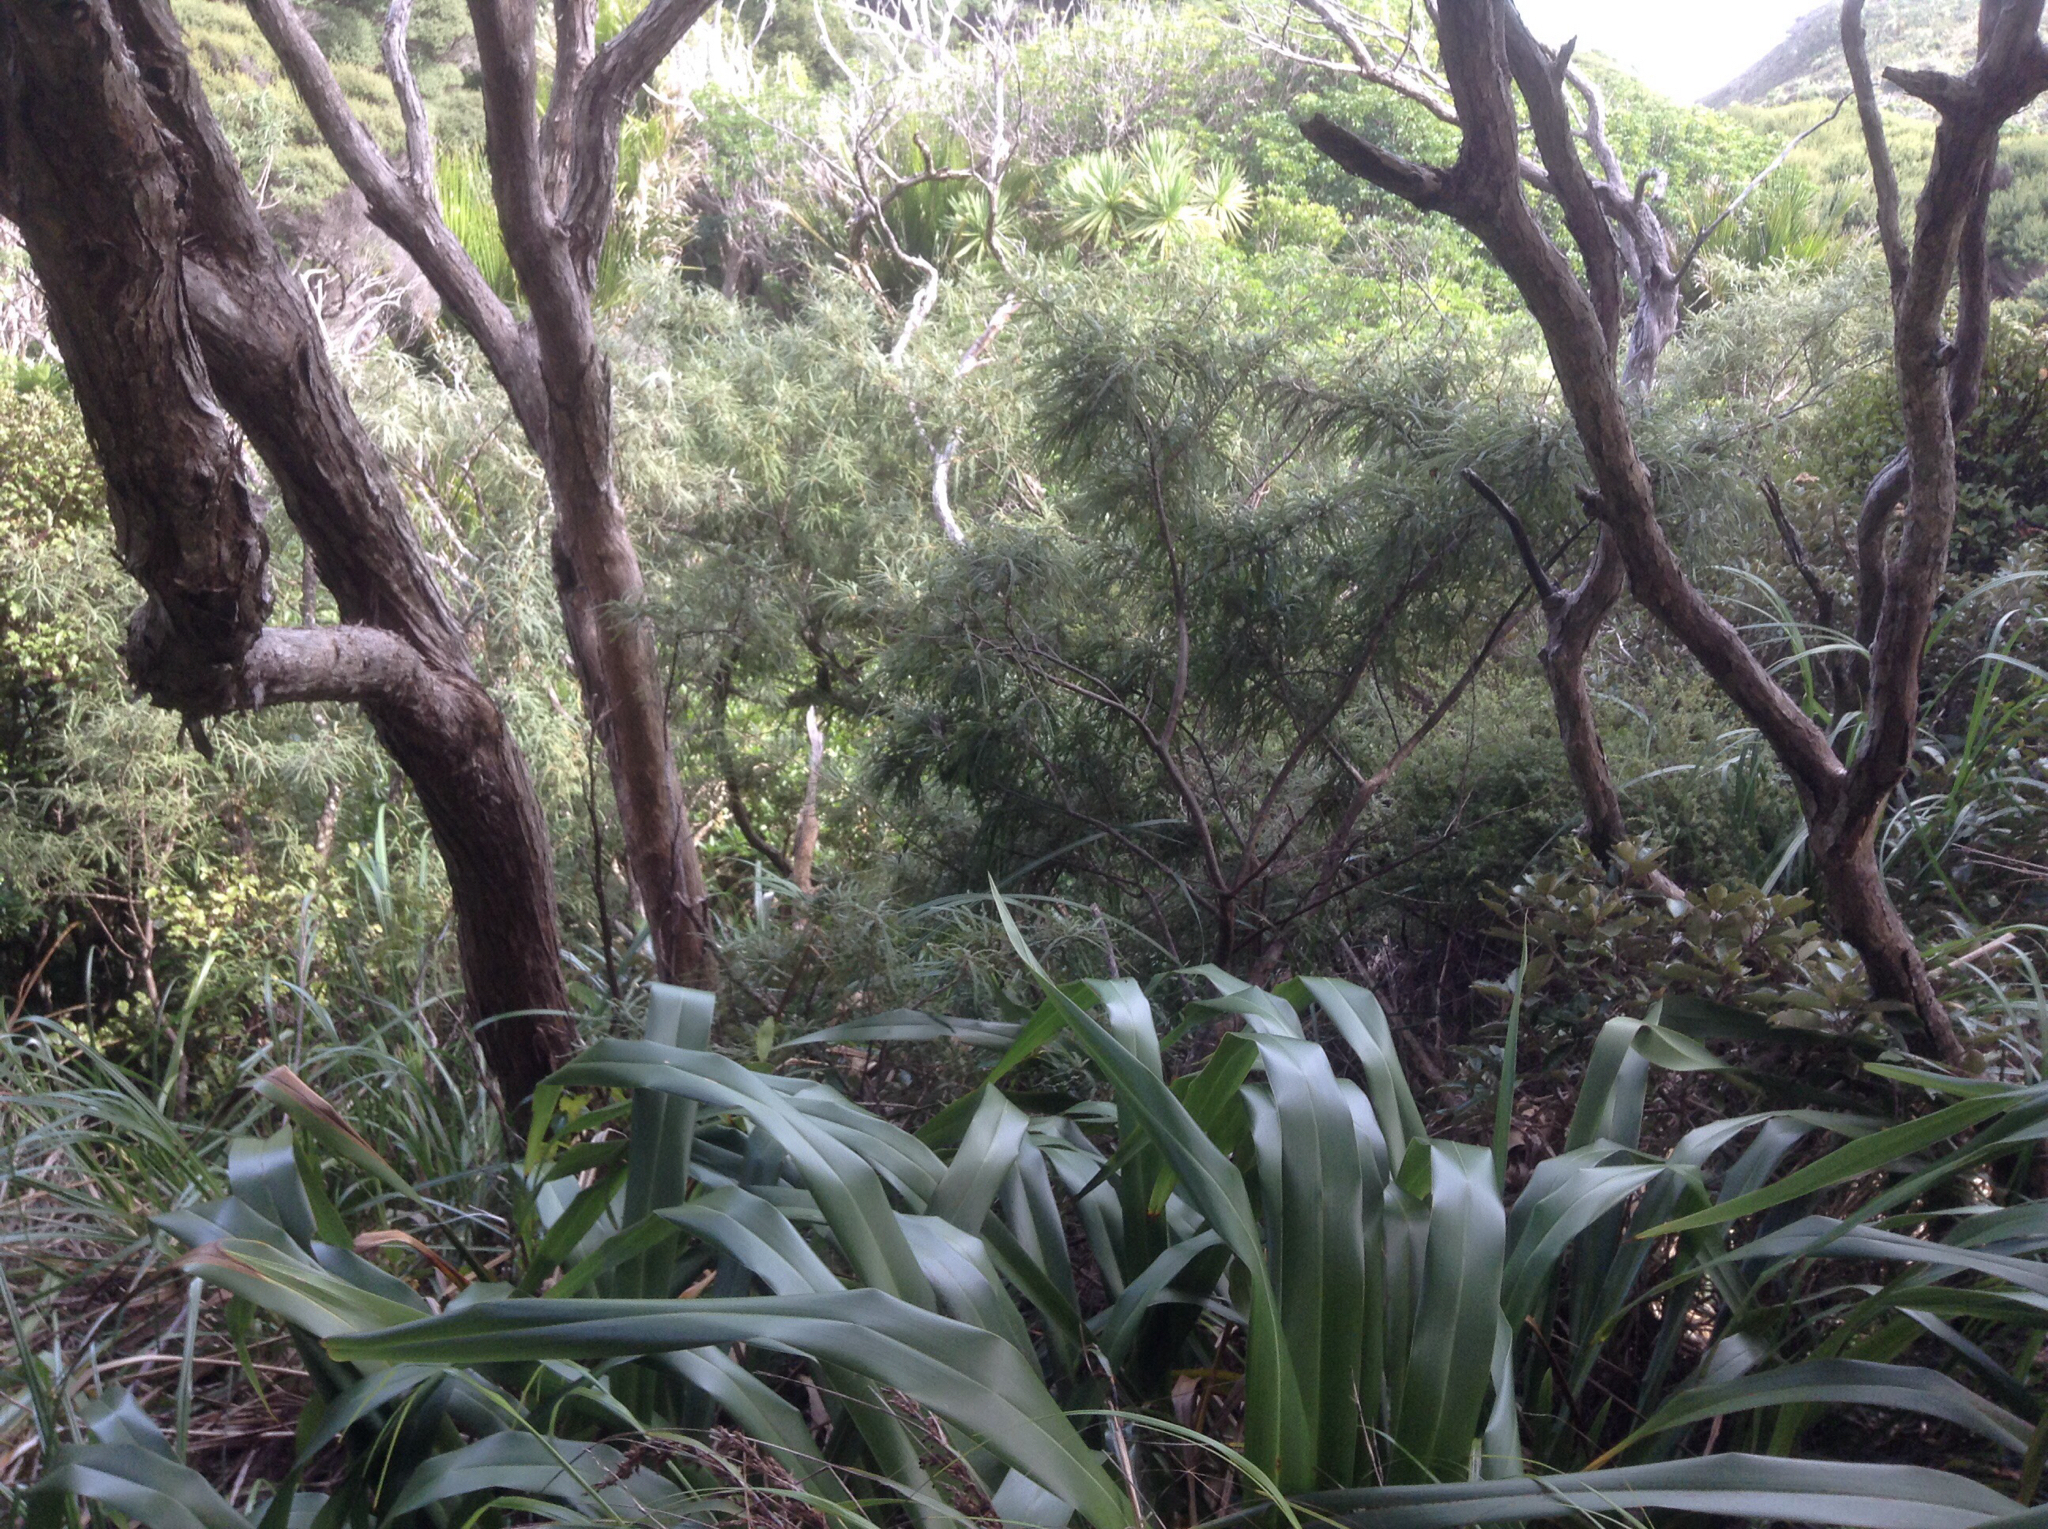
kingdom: Plantae
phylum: Tracheophyta
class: Magnoliopsida
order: Fabales
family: Fabaceae
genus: Sophora
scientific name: Sophora fulvida
